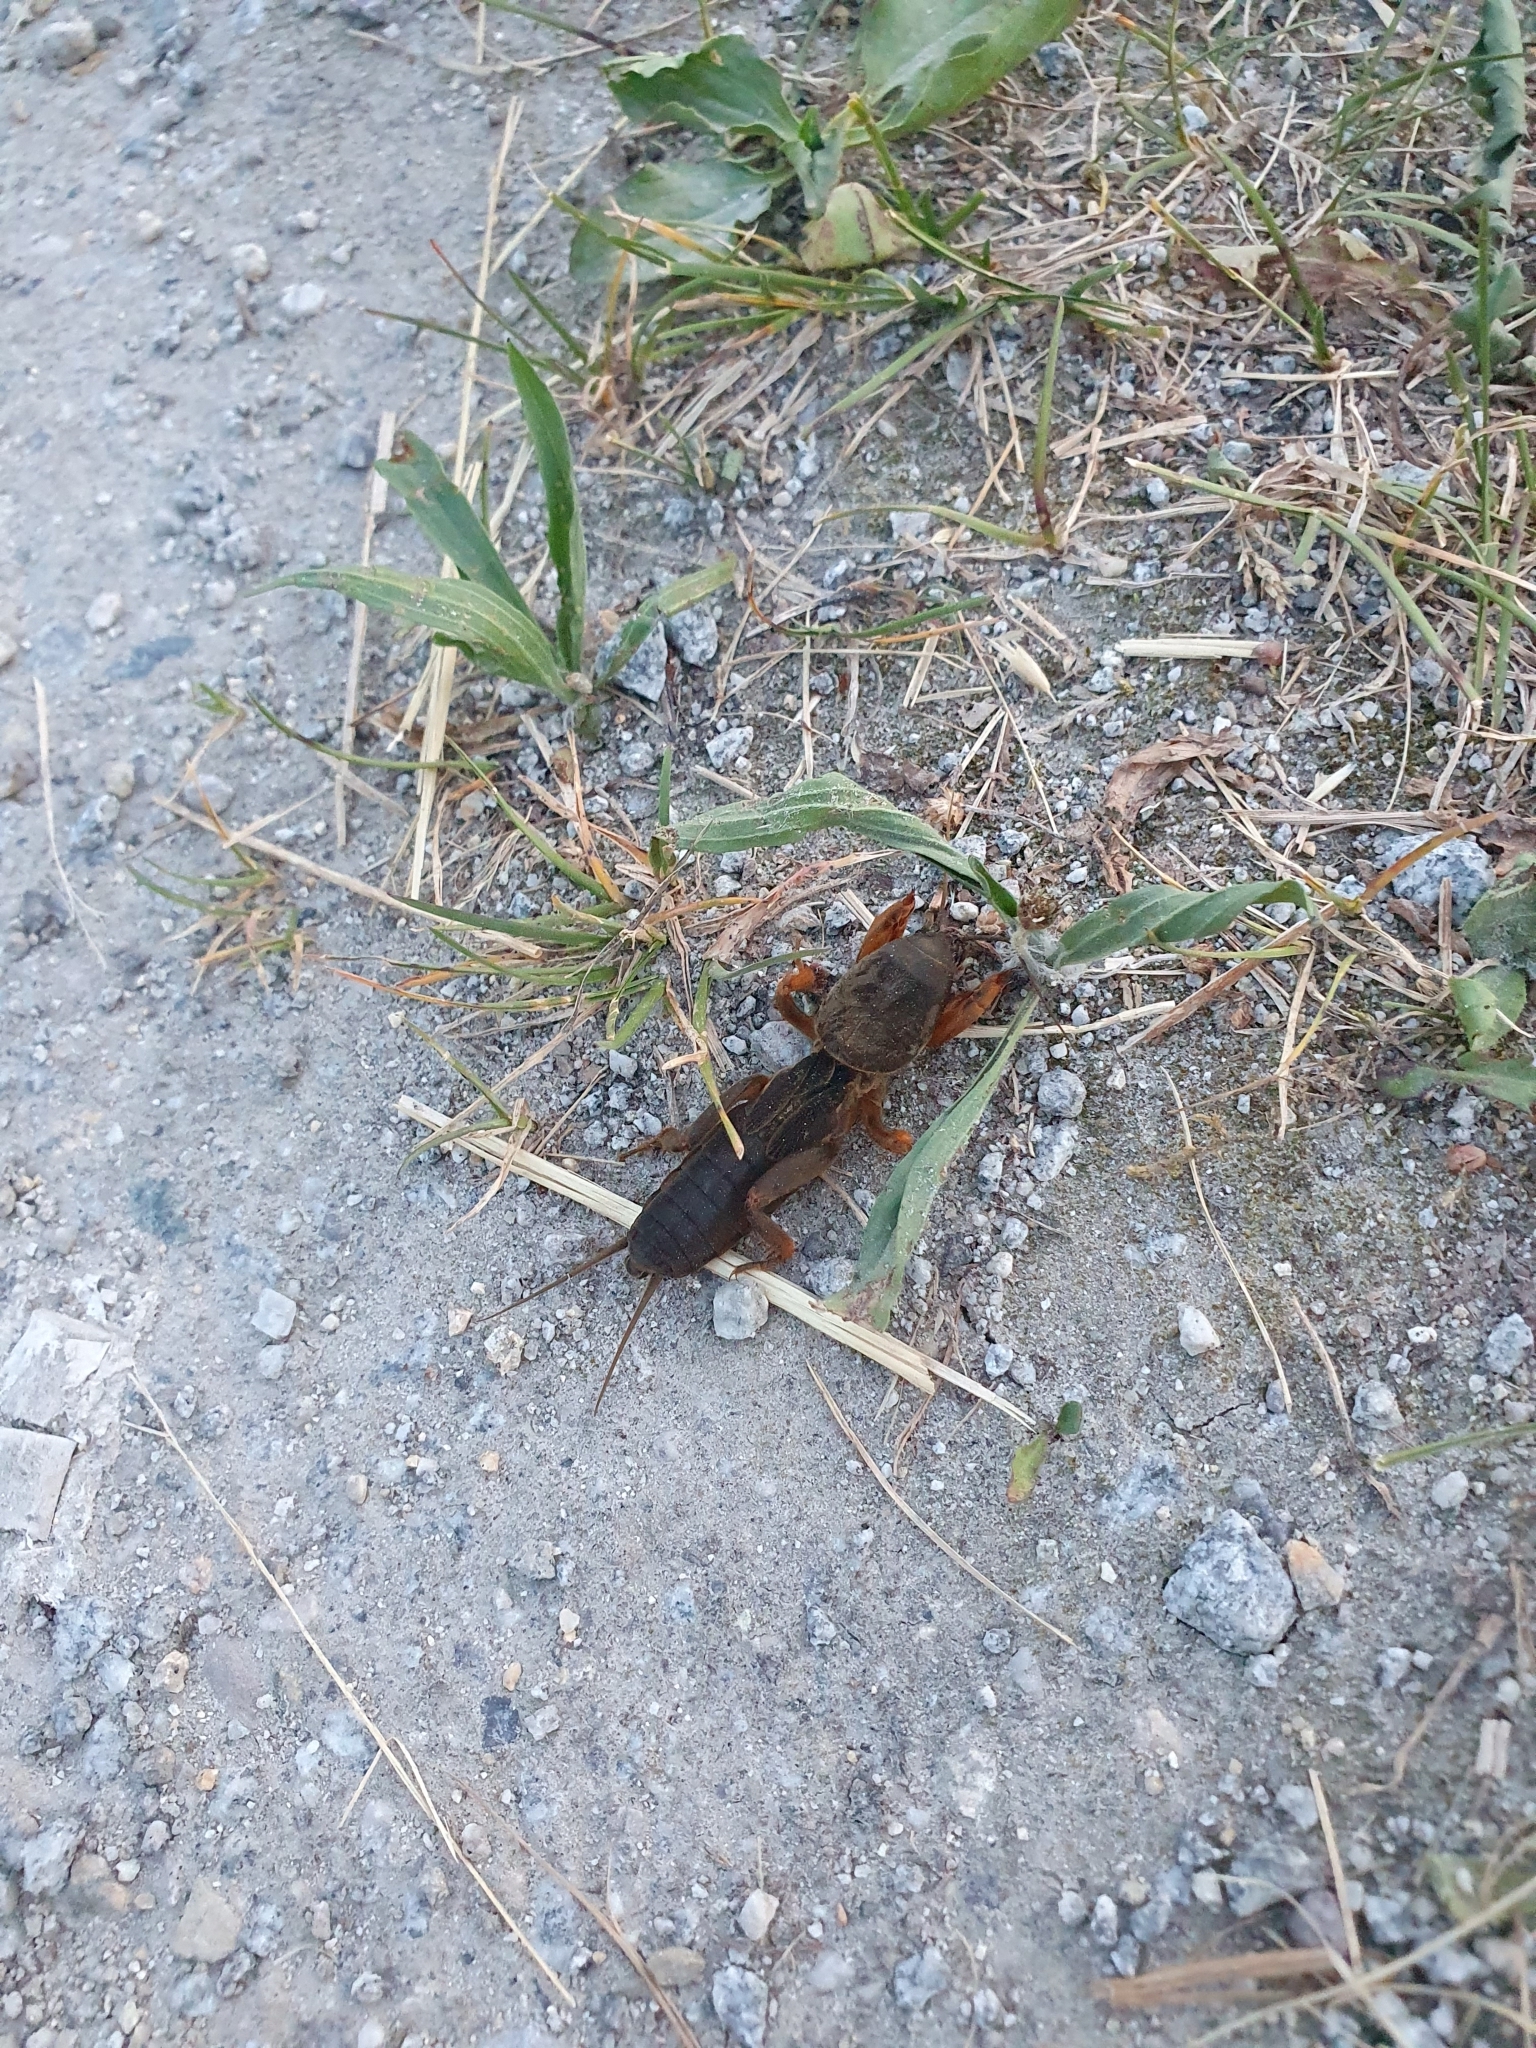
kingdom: Animalia
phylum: Arthropoda
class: Insecta
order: Orthoptera
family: Gryllotalpidae
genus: Gryllotalpa
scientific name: Gryllotalpa gryllotalpa
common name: European mole cricket
